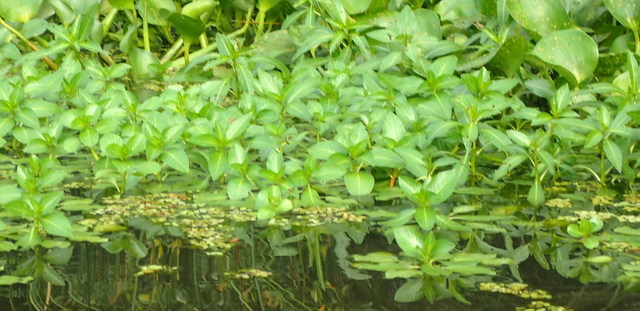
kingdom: Plantae
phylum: Tracheophyta
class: Magnoliopsida
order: Myrtales
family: Onagraceae
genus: Ludwigia
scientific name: Ludwigia peploides
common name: Floating primrose-willow
